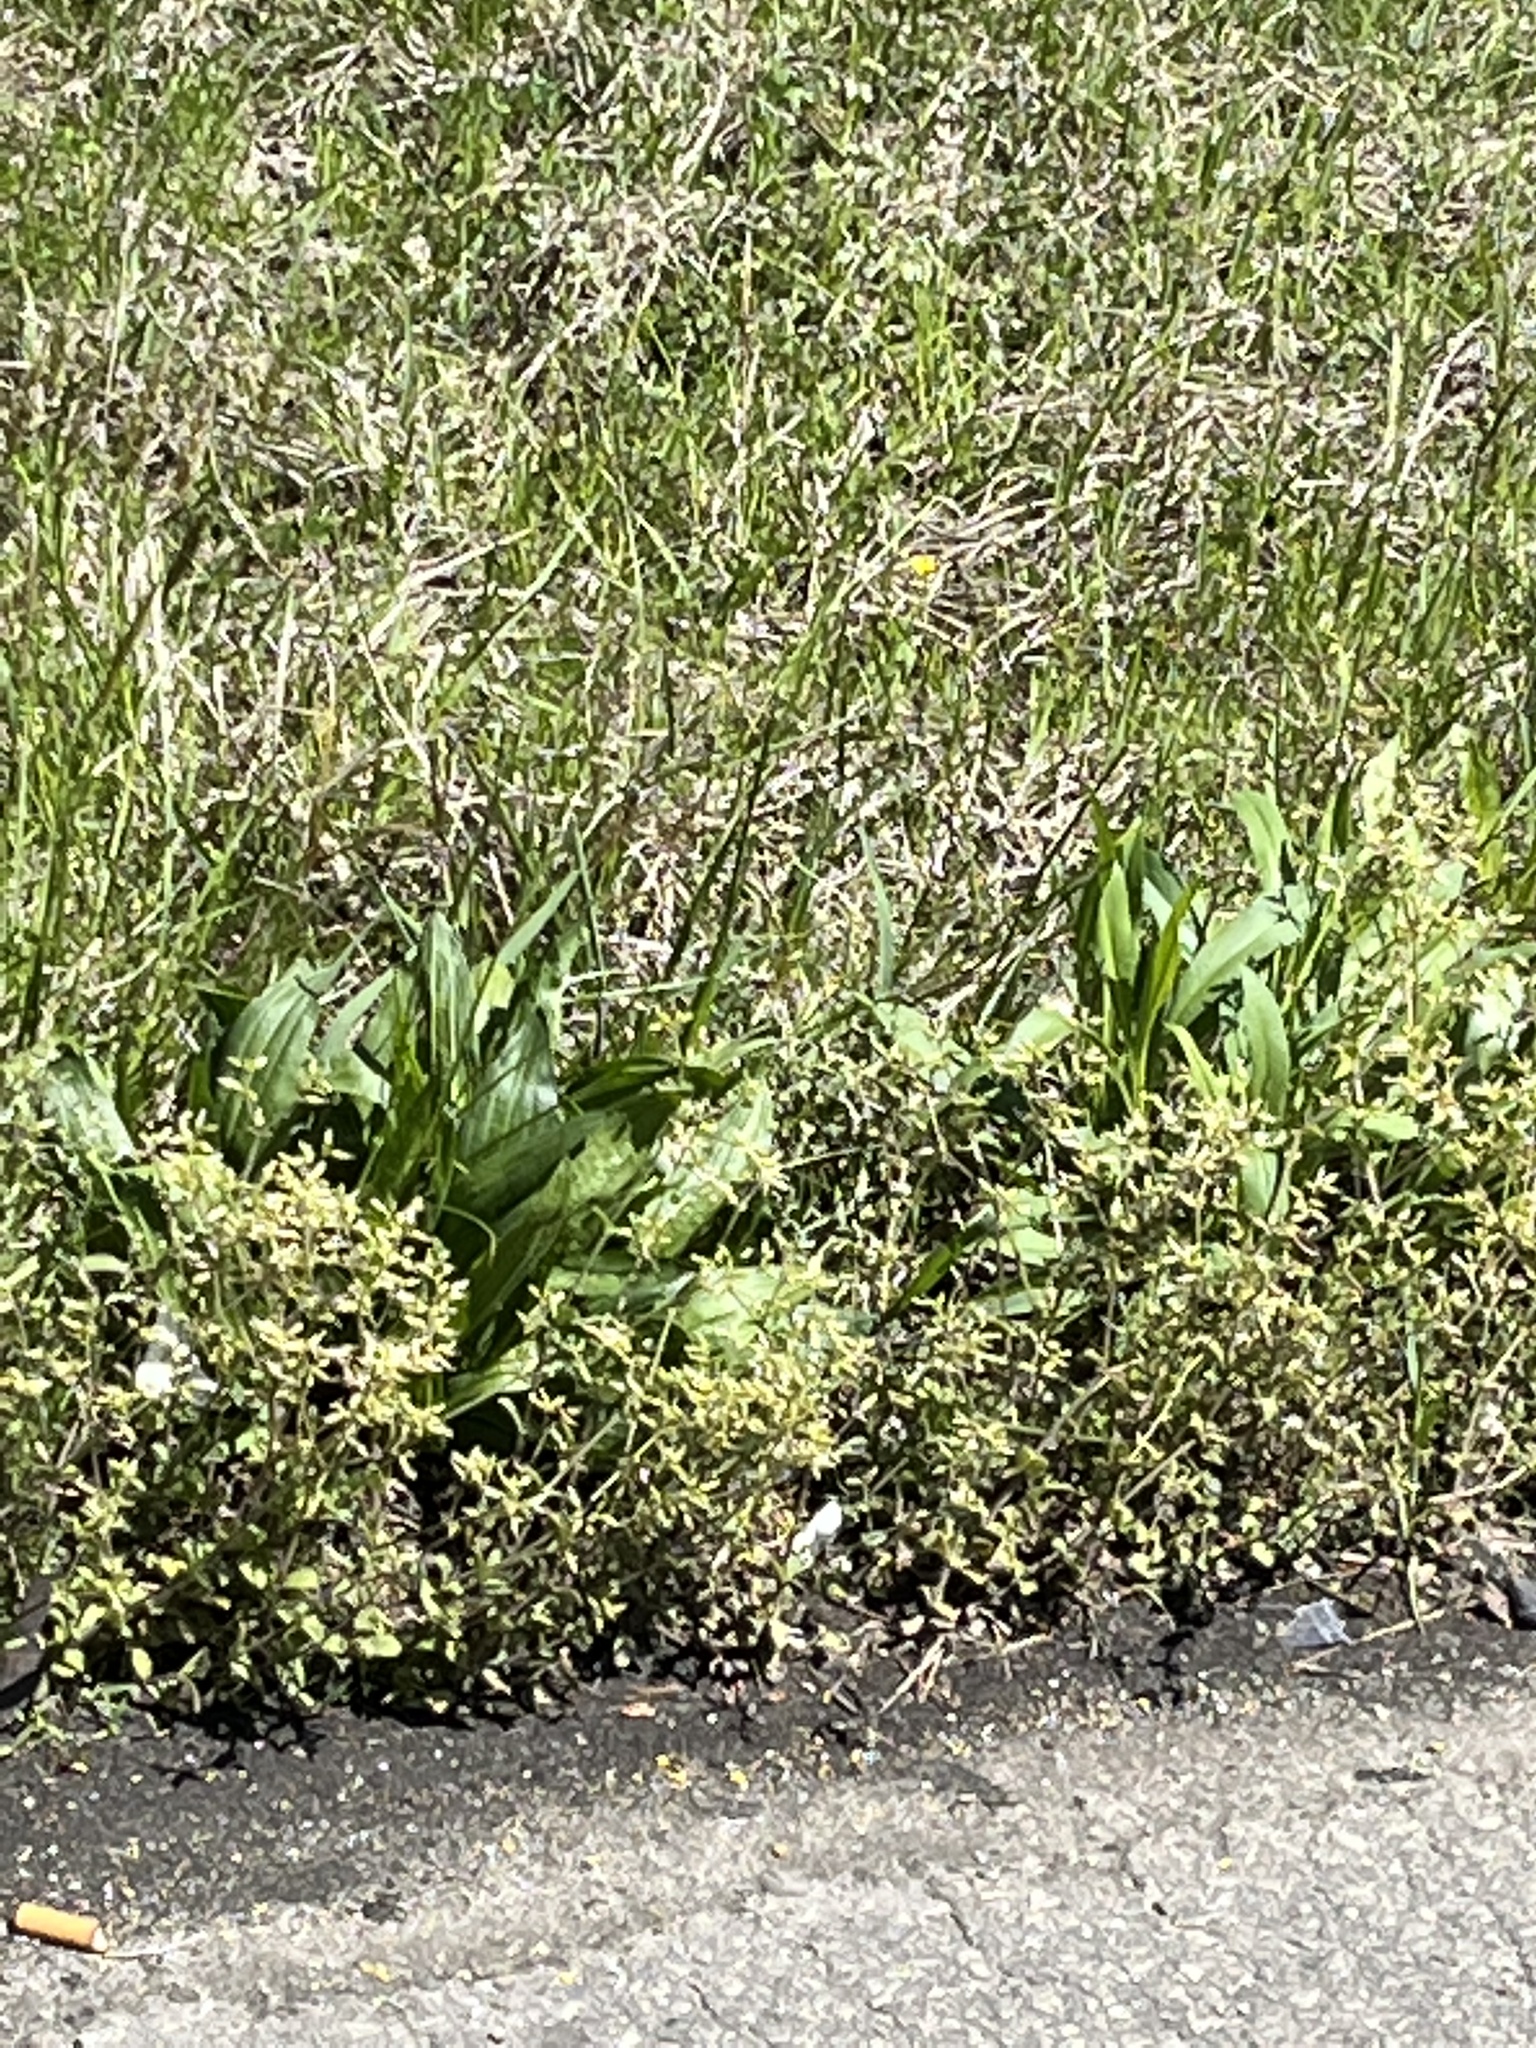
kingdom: Plantae
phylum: Tracheophyta
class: Magnoliopsida
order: Lamiales
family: Plantaginaceae
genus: Plantago
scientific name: Plantago lanceolata
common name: Ribwort plantain
